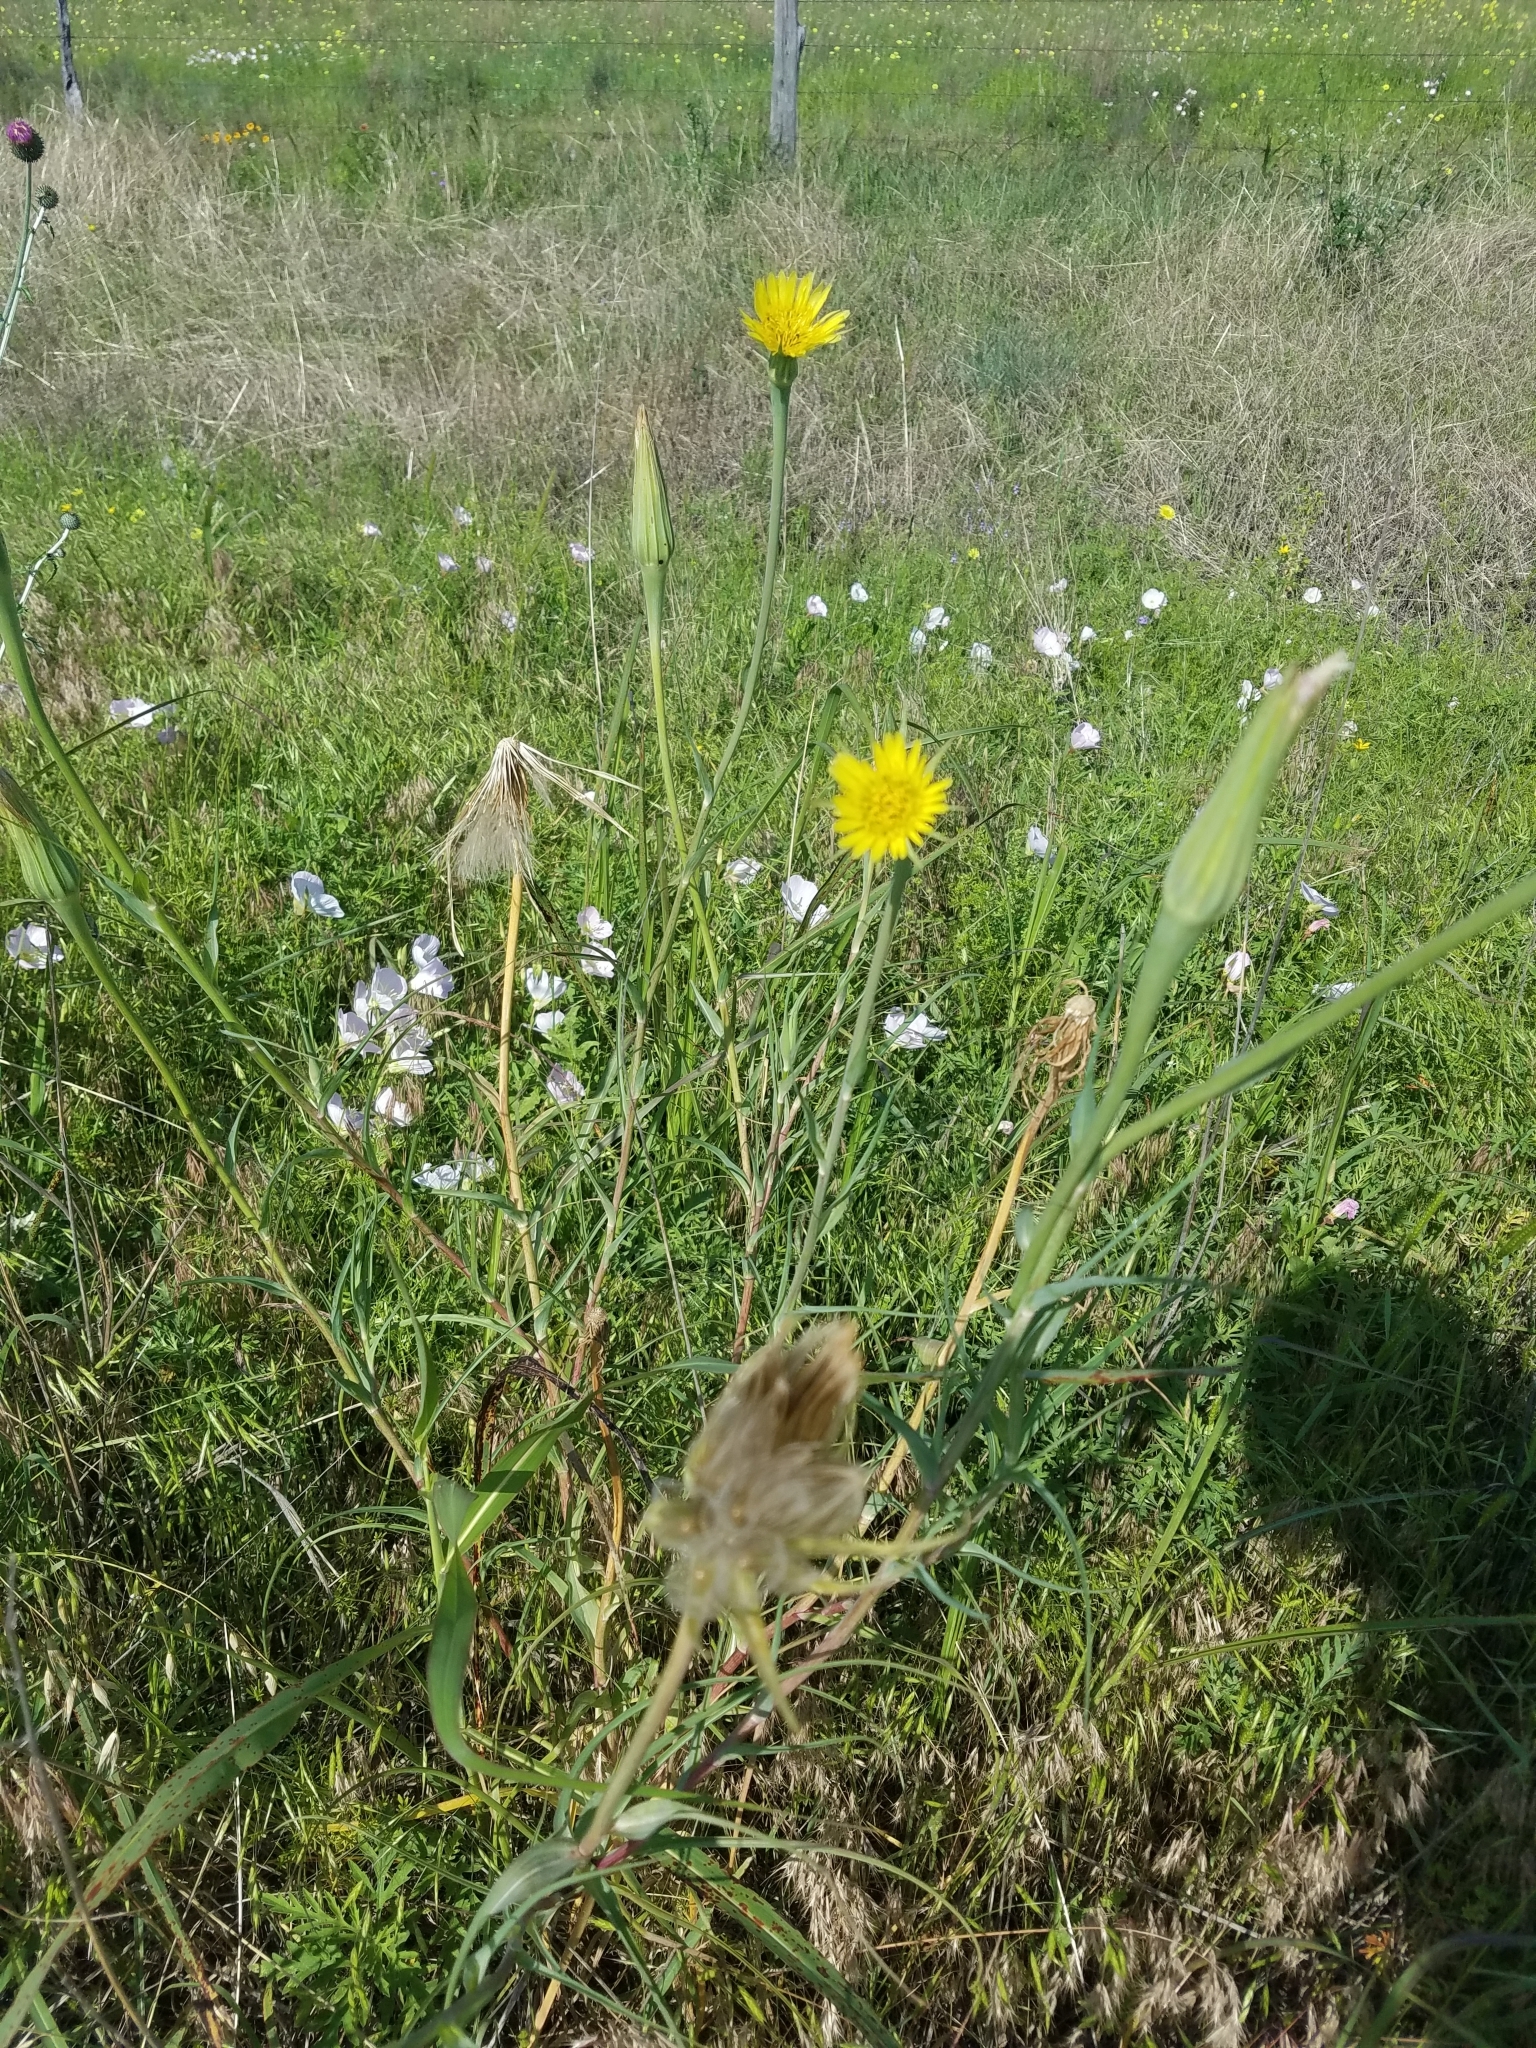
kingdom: Plantae
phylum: Tracheophyta
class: Magnoliopsida
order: Asterales
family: Asteraceae
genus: Tragopogon
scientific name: Tragopogon dubius
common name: Yellow salsify
